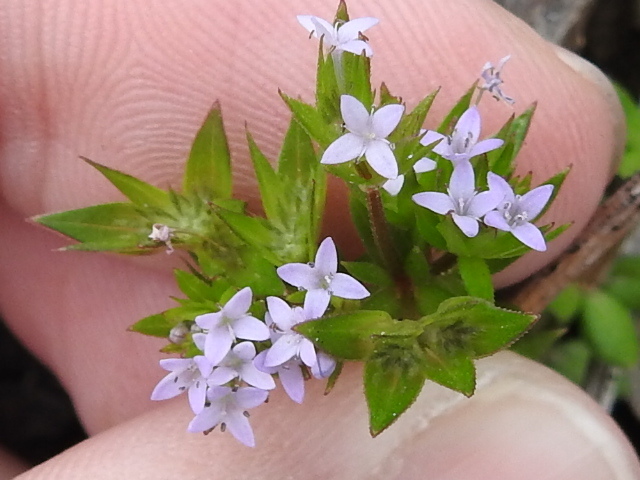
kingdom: Plantae
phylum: Tracheophyta
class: Magnoliopsida
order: Gentianales
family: Rubiaceae
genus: Sherardia
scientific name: Sherardia arvensis
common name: Field madder
